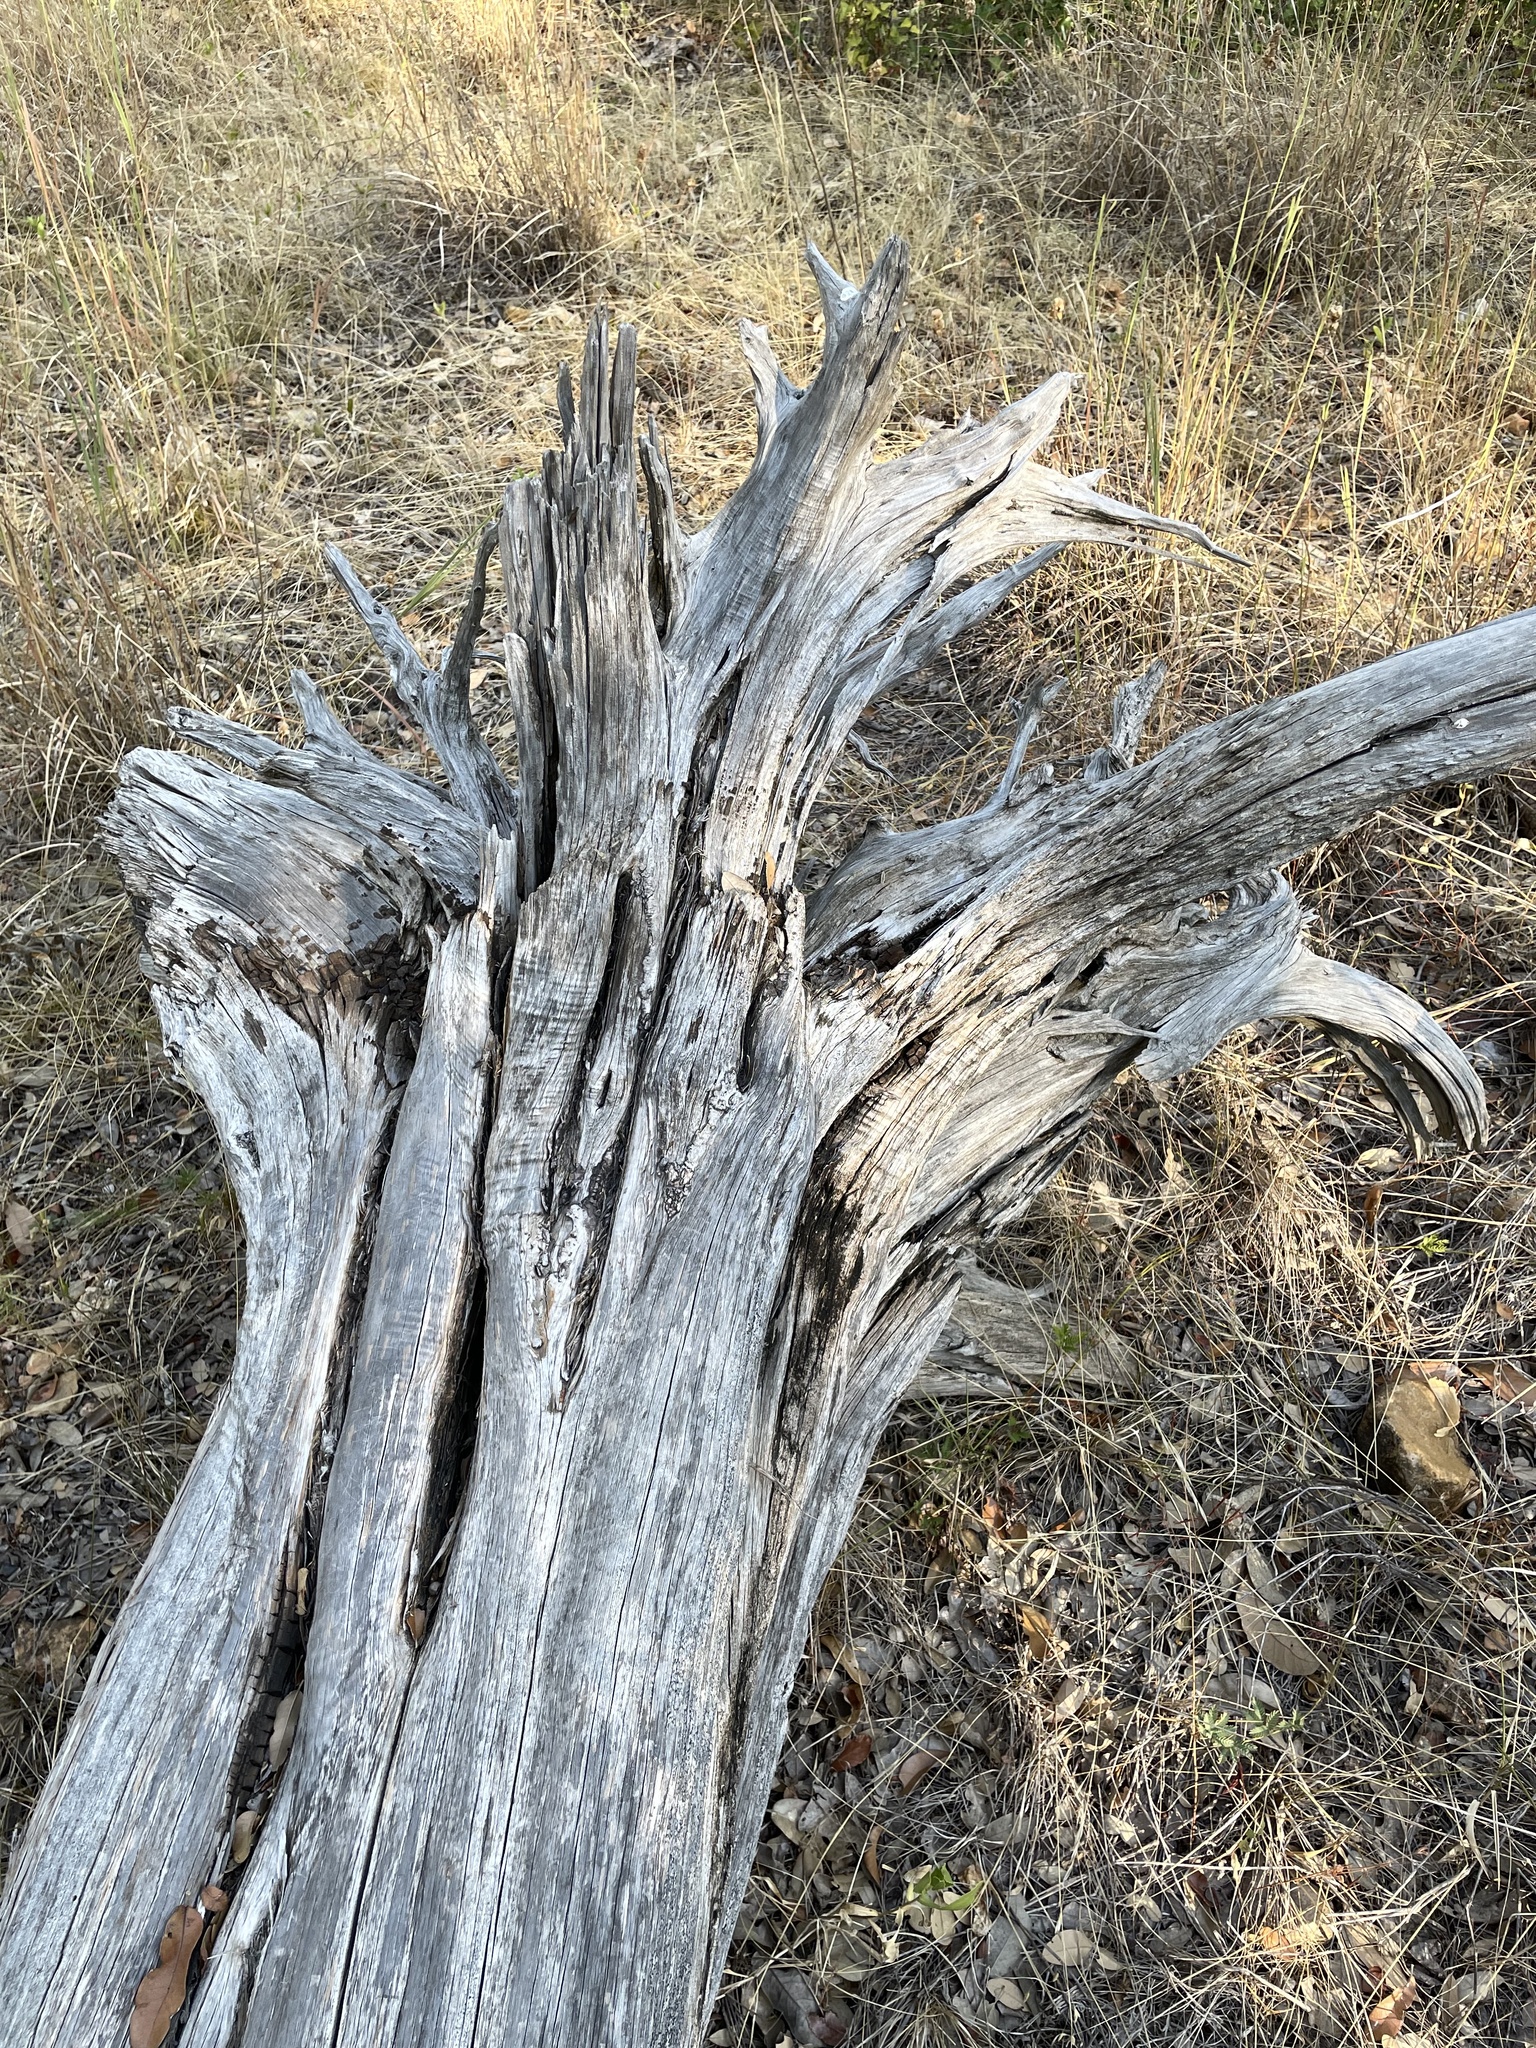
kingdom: Plantae
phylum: Tracheophyta
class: Pinopsida
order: Pinales
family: Cupressaceae
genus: Juniperus
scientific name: Juniperus ashei
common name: Mexican juniper
